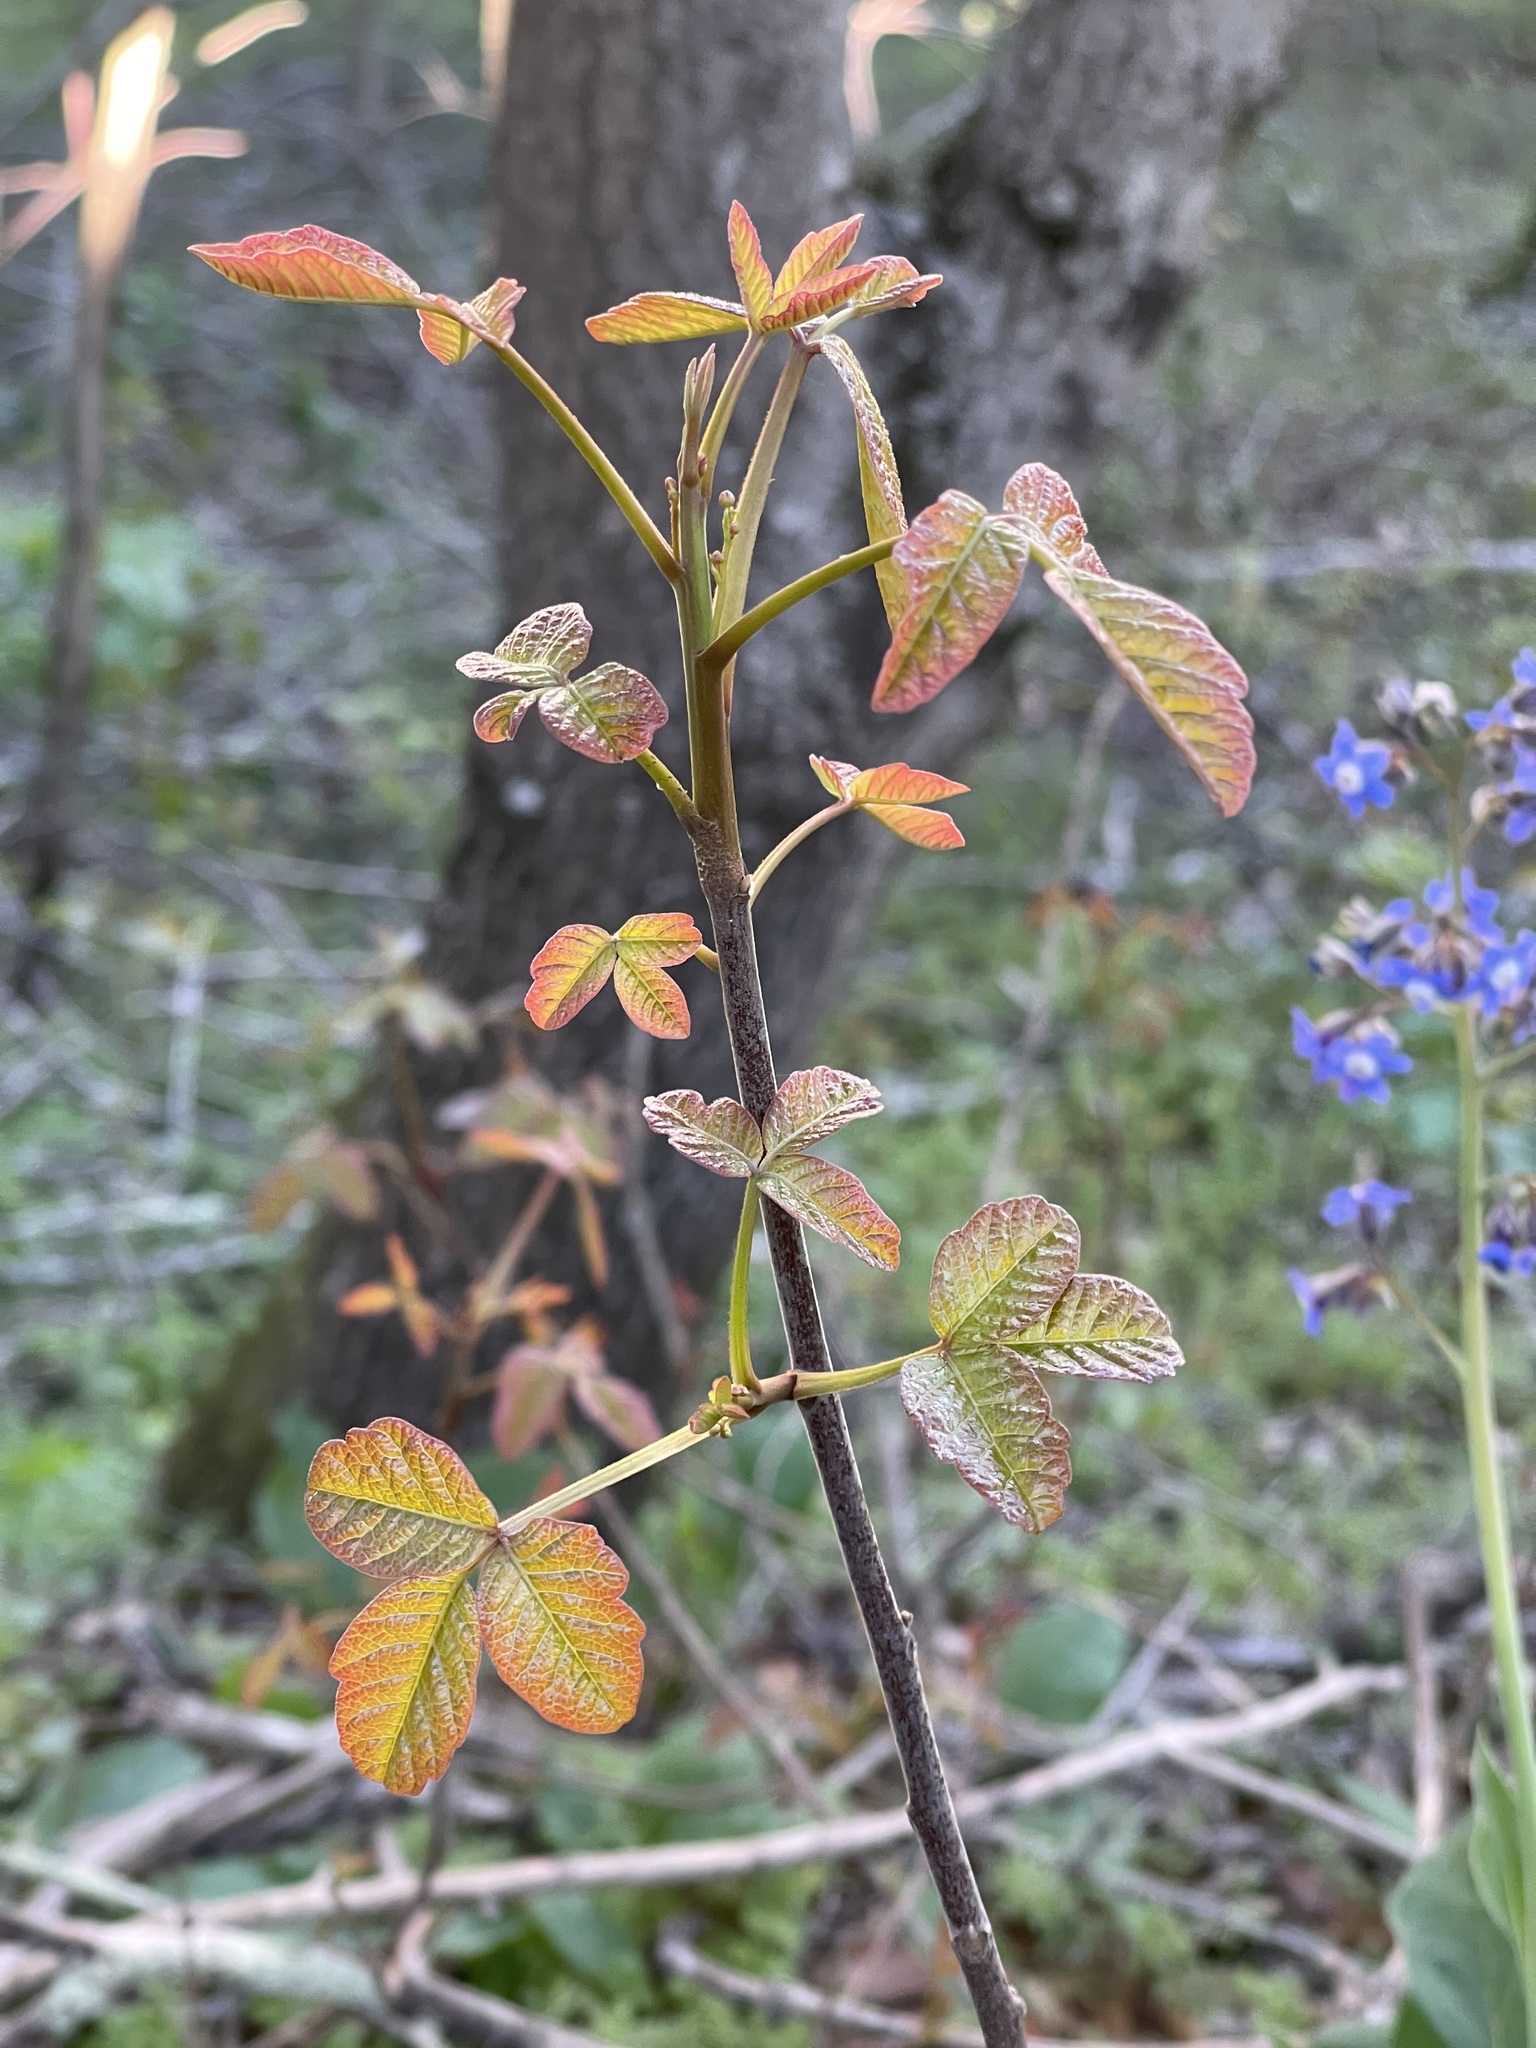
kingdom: Plantae
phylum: Tracheophyta
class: Magnoliopsida
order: Sapindales
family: Anacardiaceae
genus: Toxicodendron
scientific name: Toxicodendron diversilobum
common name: Pacific poison-oak
